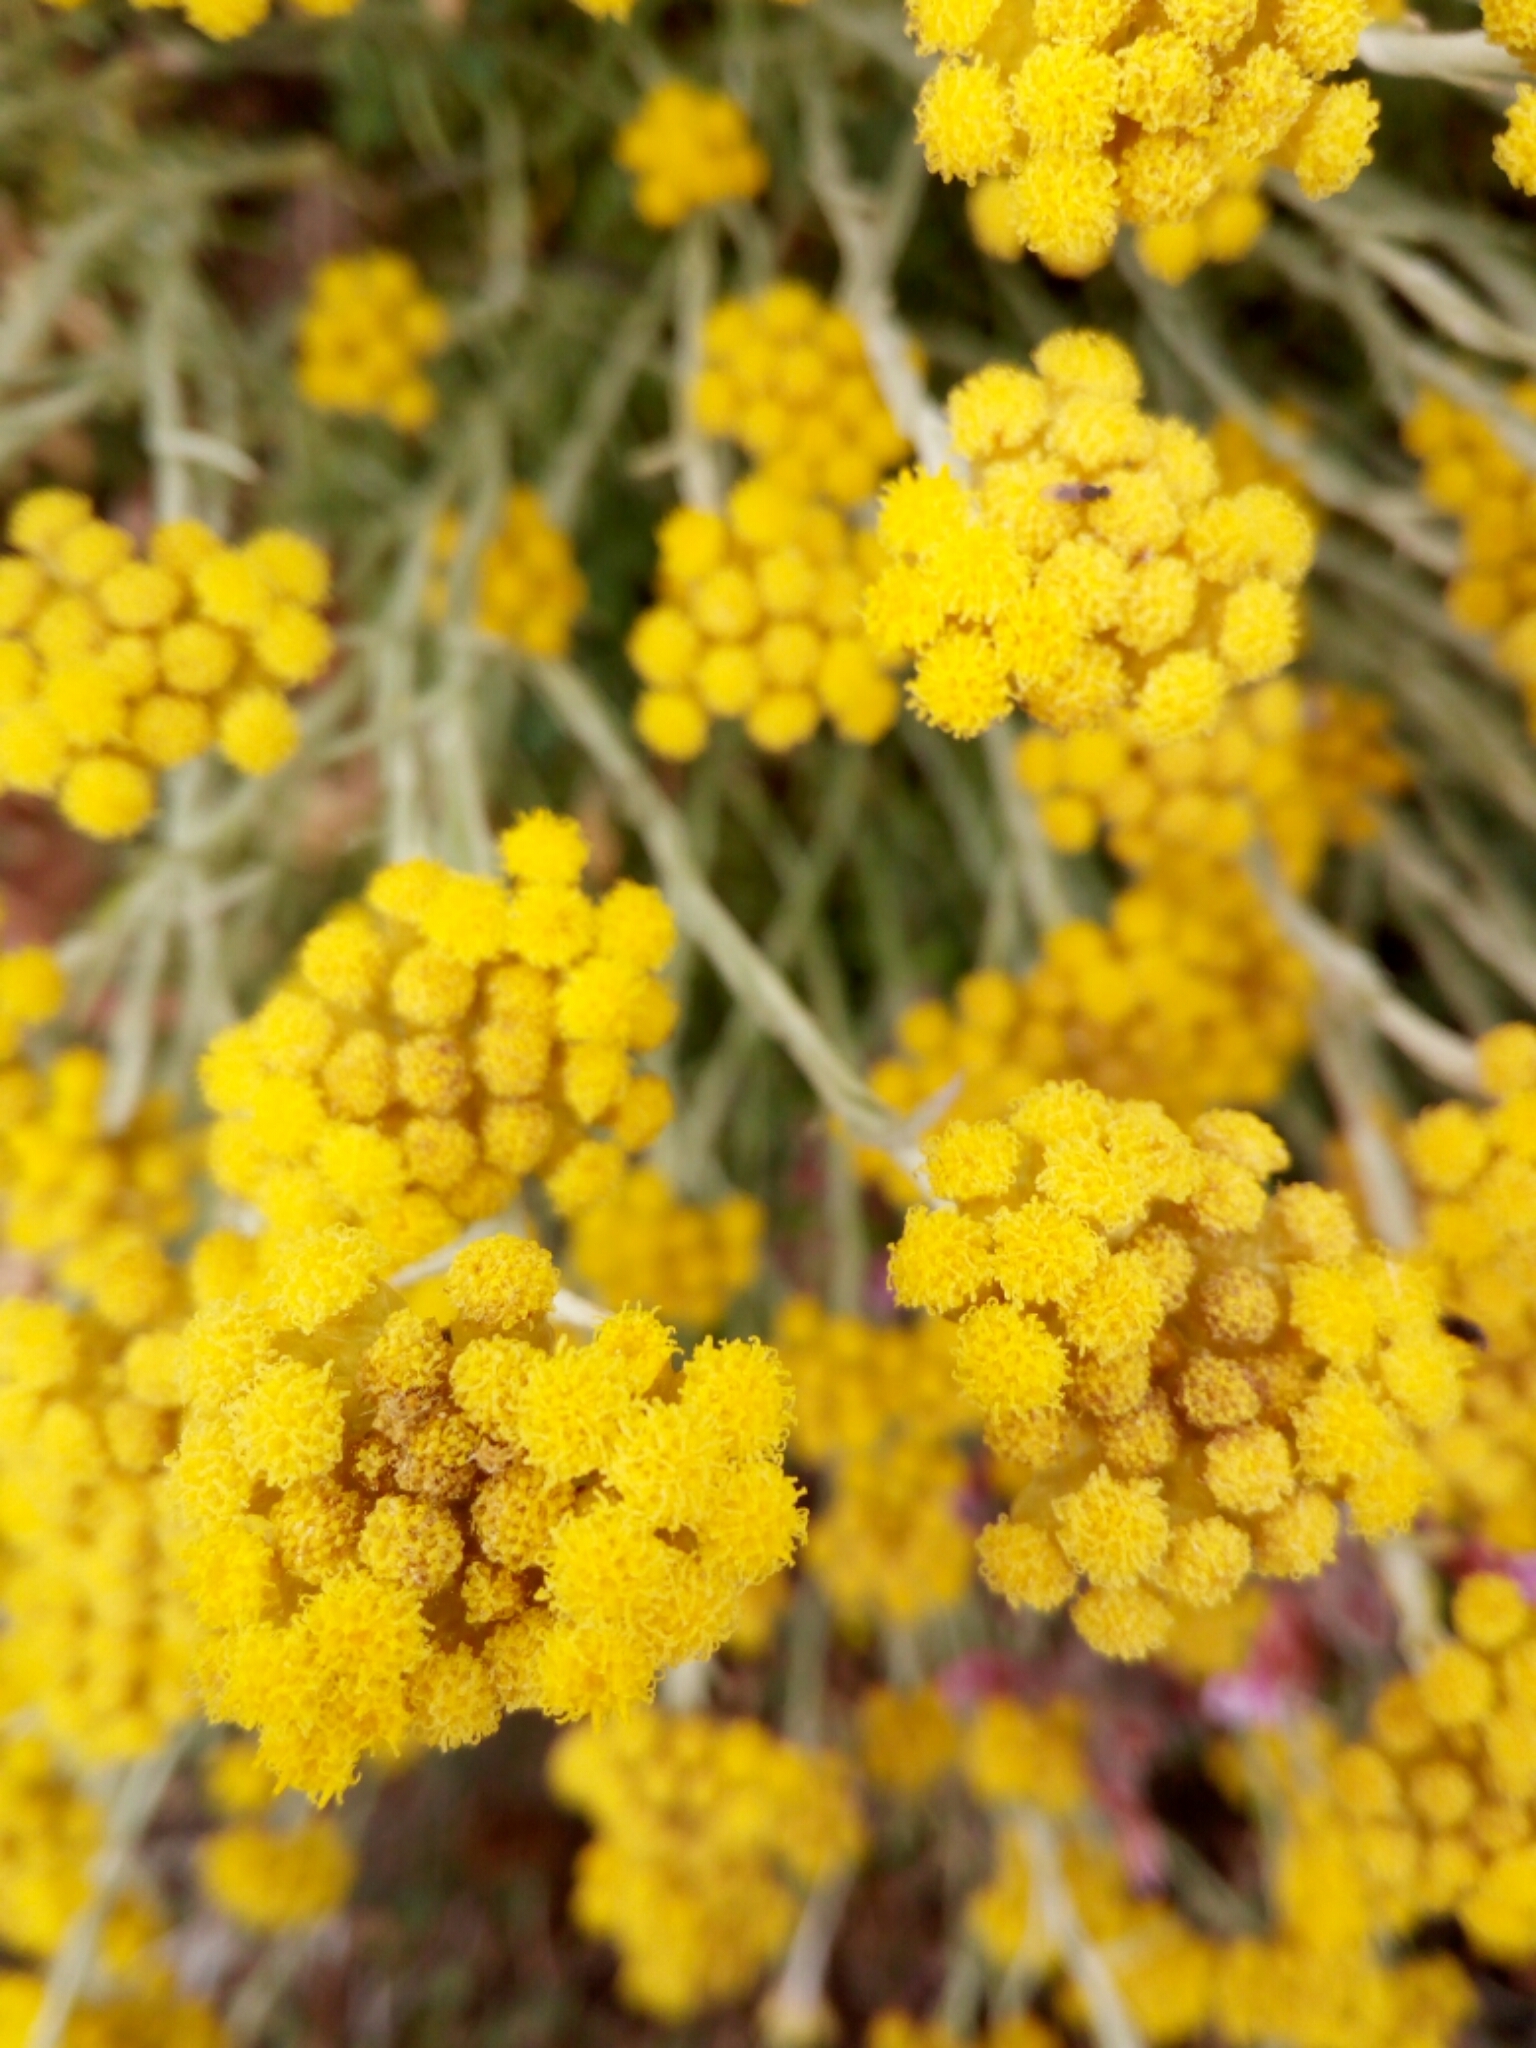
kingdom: Plantae
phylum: Tracheophyta
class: Magnoliopsida
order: Asterales
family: Asteraceae
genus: Helichrysum
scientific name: Helichrysum stoechas
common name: Goldilocks
